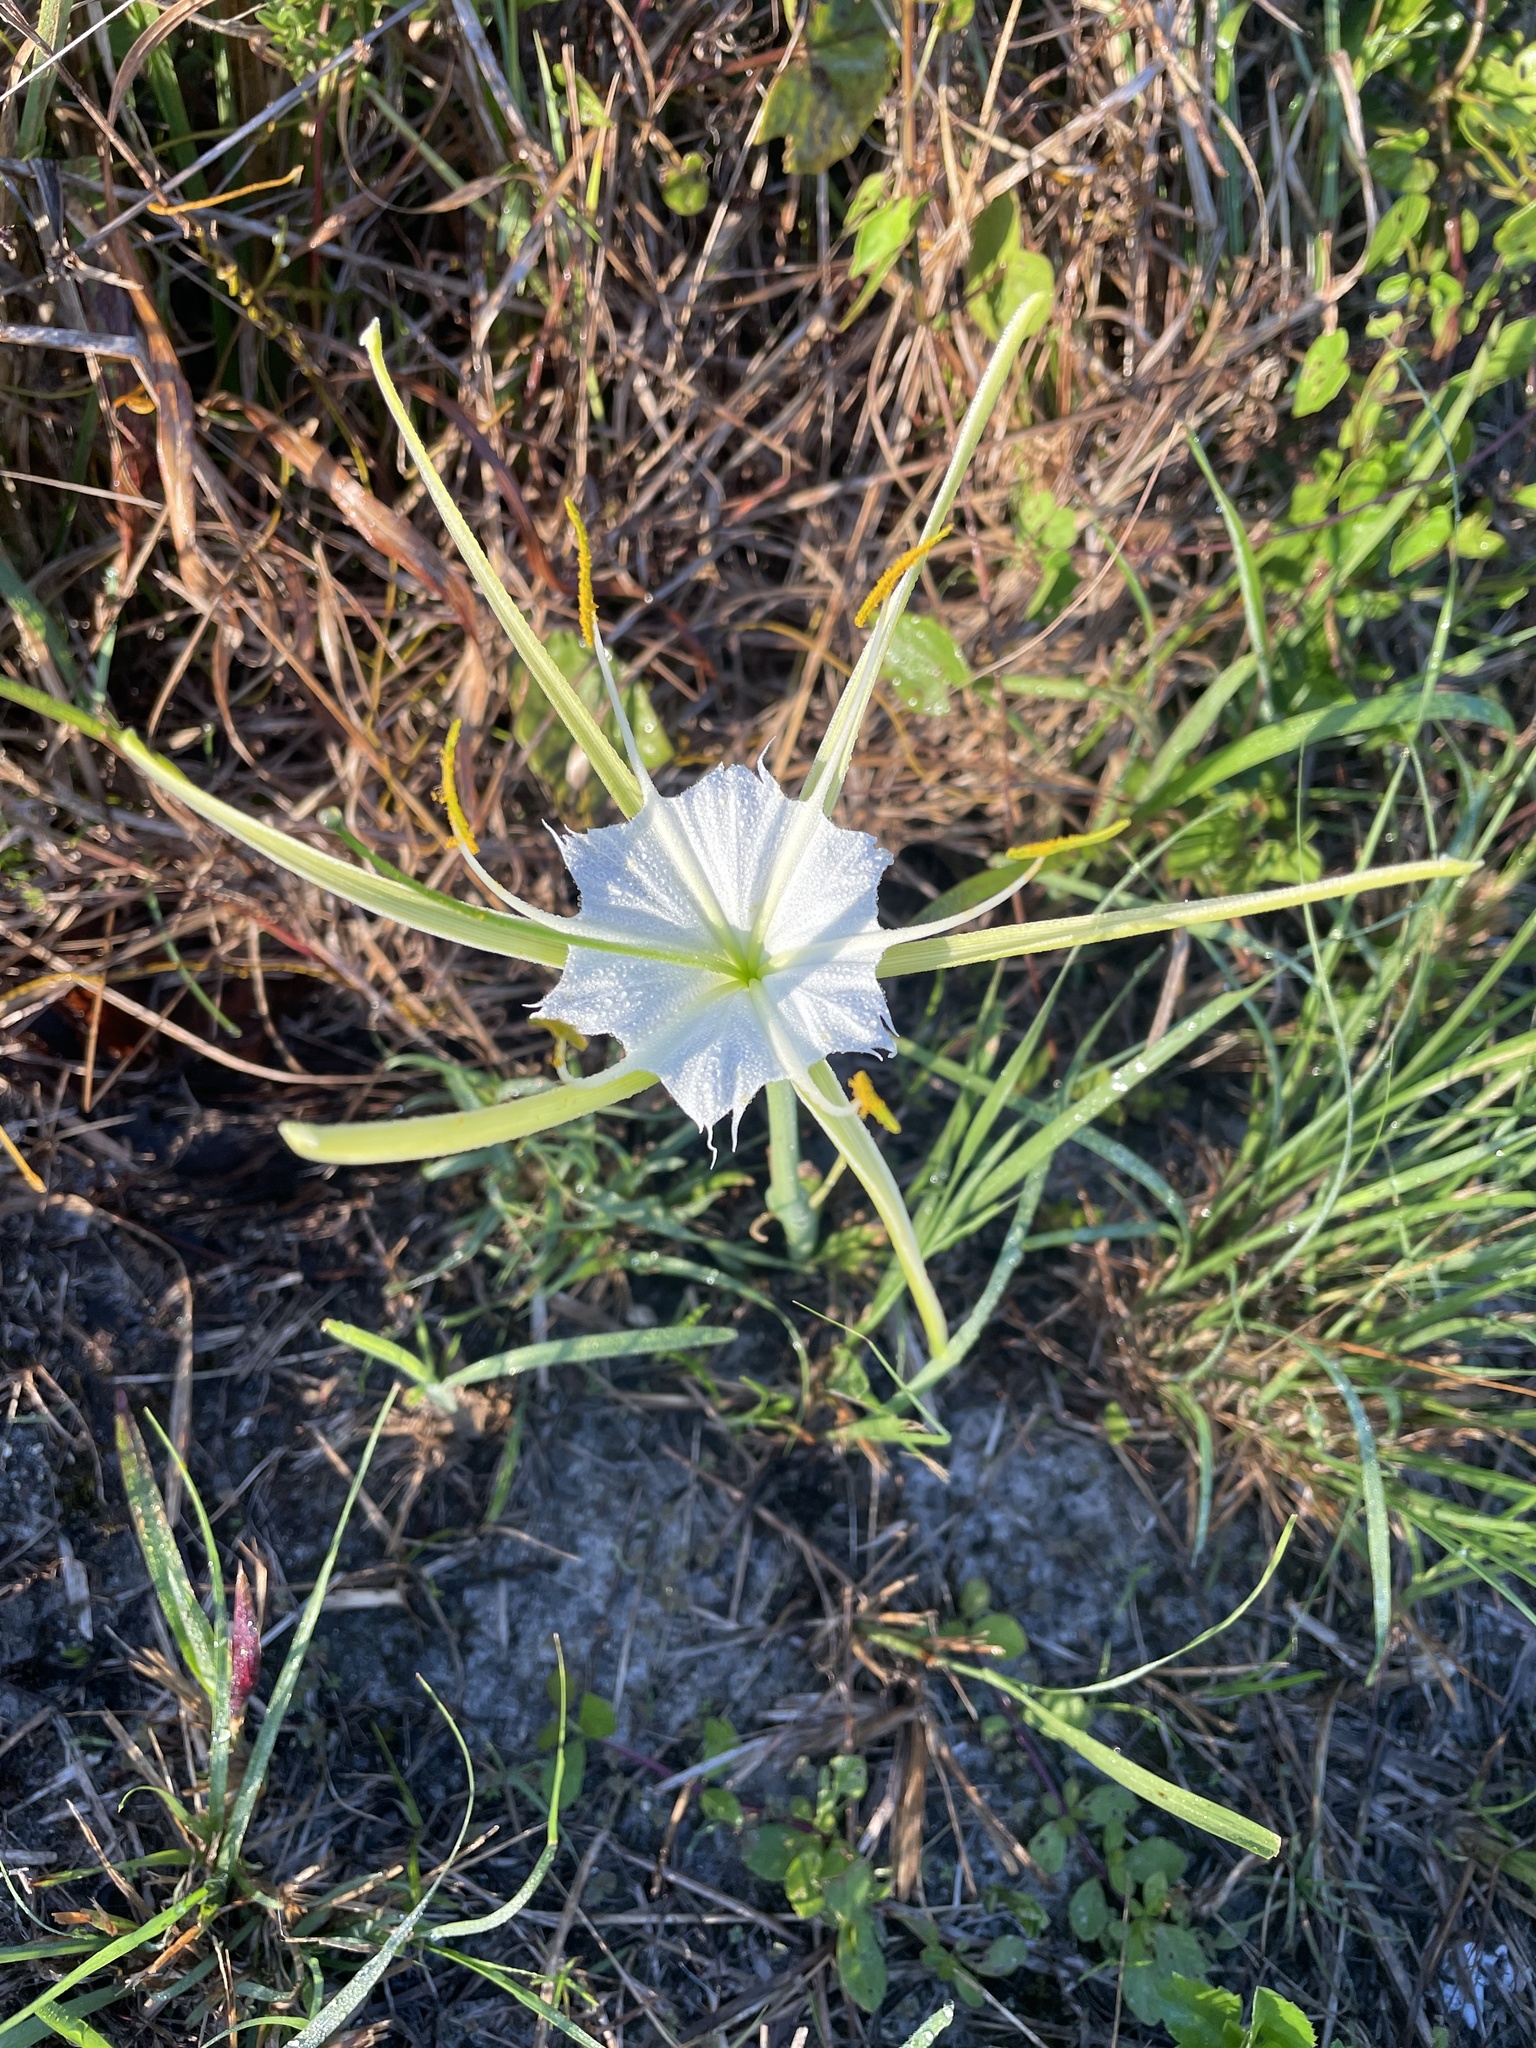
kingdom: Plantae
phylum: Tracheophyta
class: Liliopsida
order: Asparagales
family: Amaryllidaceae
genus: Hymenocallis
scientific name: Hymenocallis palmeri
